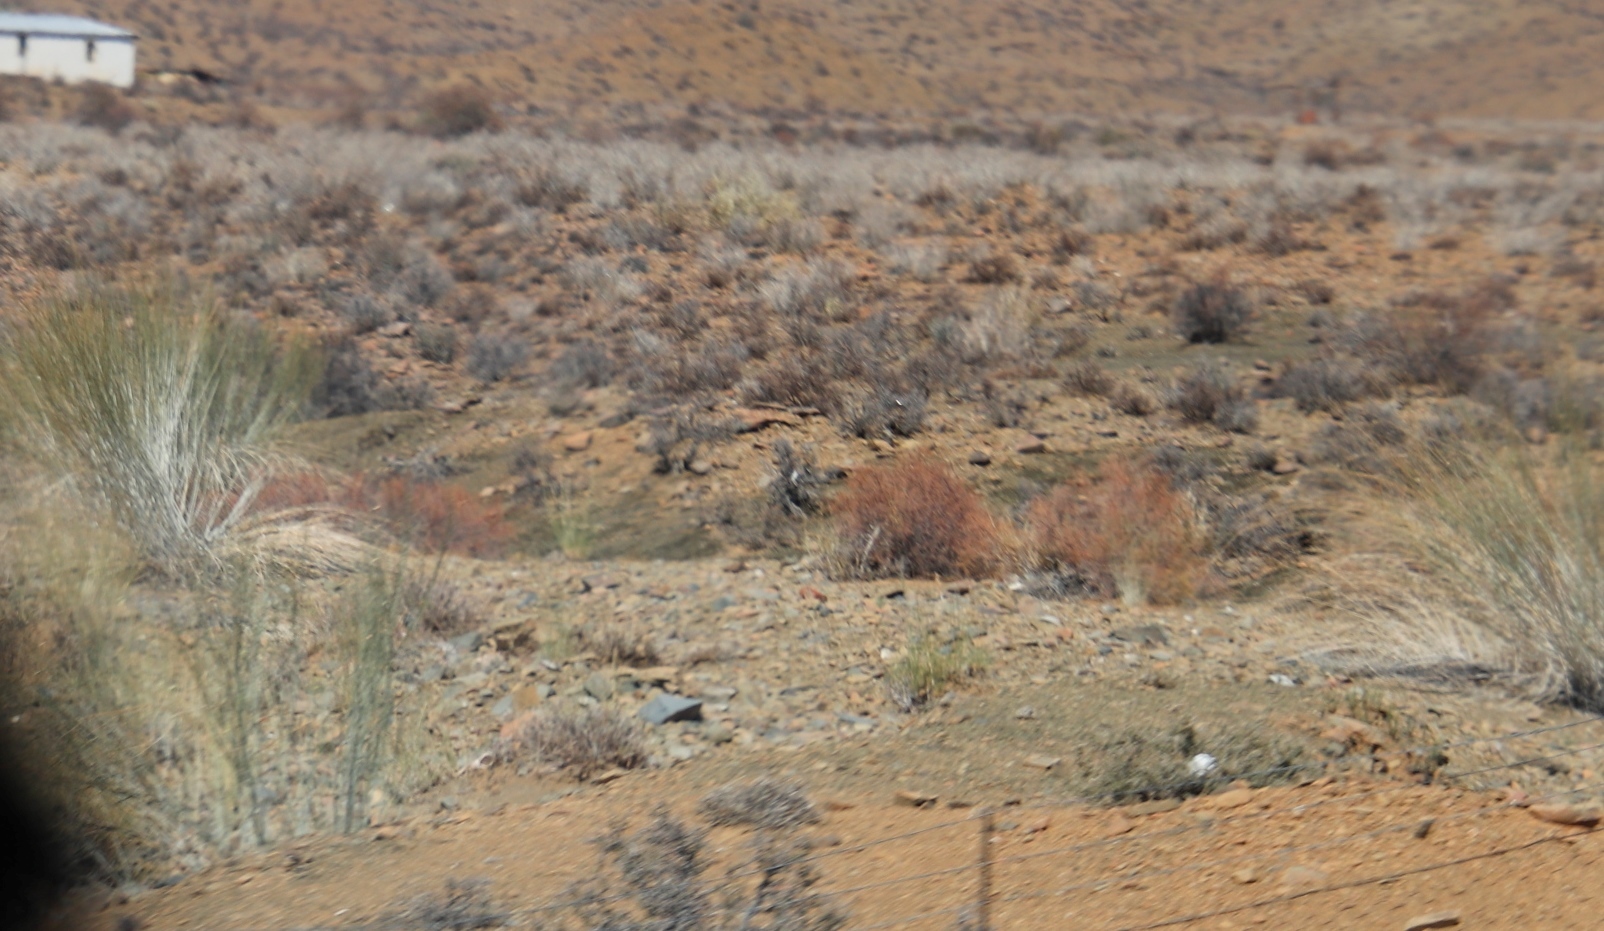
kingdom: Plantae
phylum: Tracheophyta
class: Magnoliopsida
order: Gentianales
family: Apocynaceae
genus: Gomphocarpus
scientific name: Gomphocarpus filiformis
